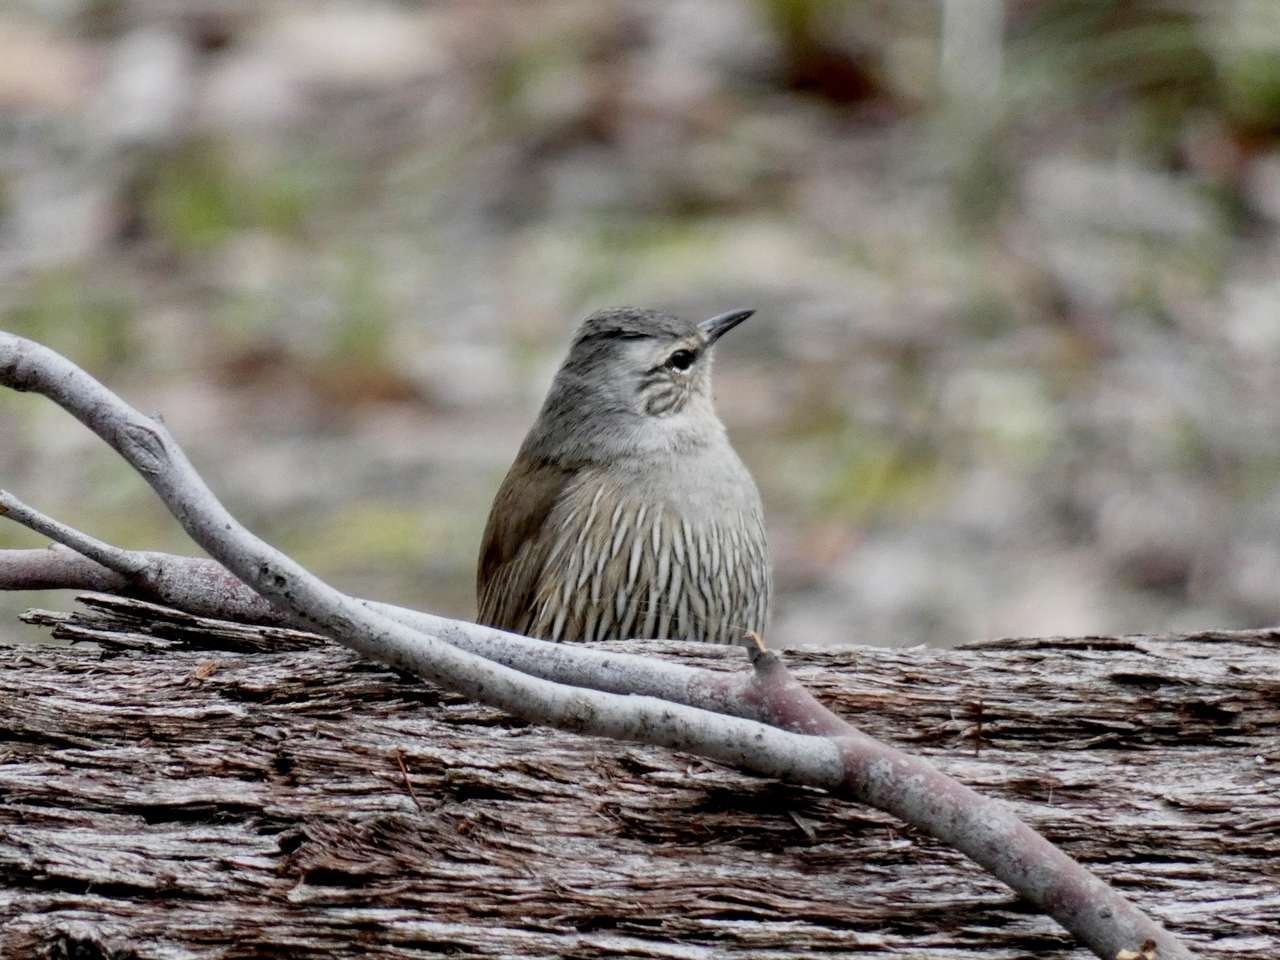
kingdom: Animalia
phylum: Chordata
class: Aves
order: Passeriformes
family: Climacteridae
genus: Climacteris
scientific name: Climacteris picumnus
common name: Brown treecreeper
